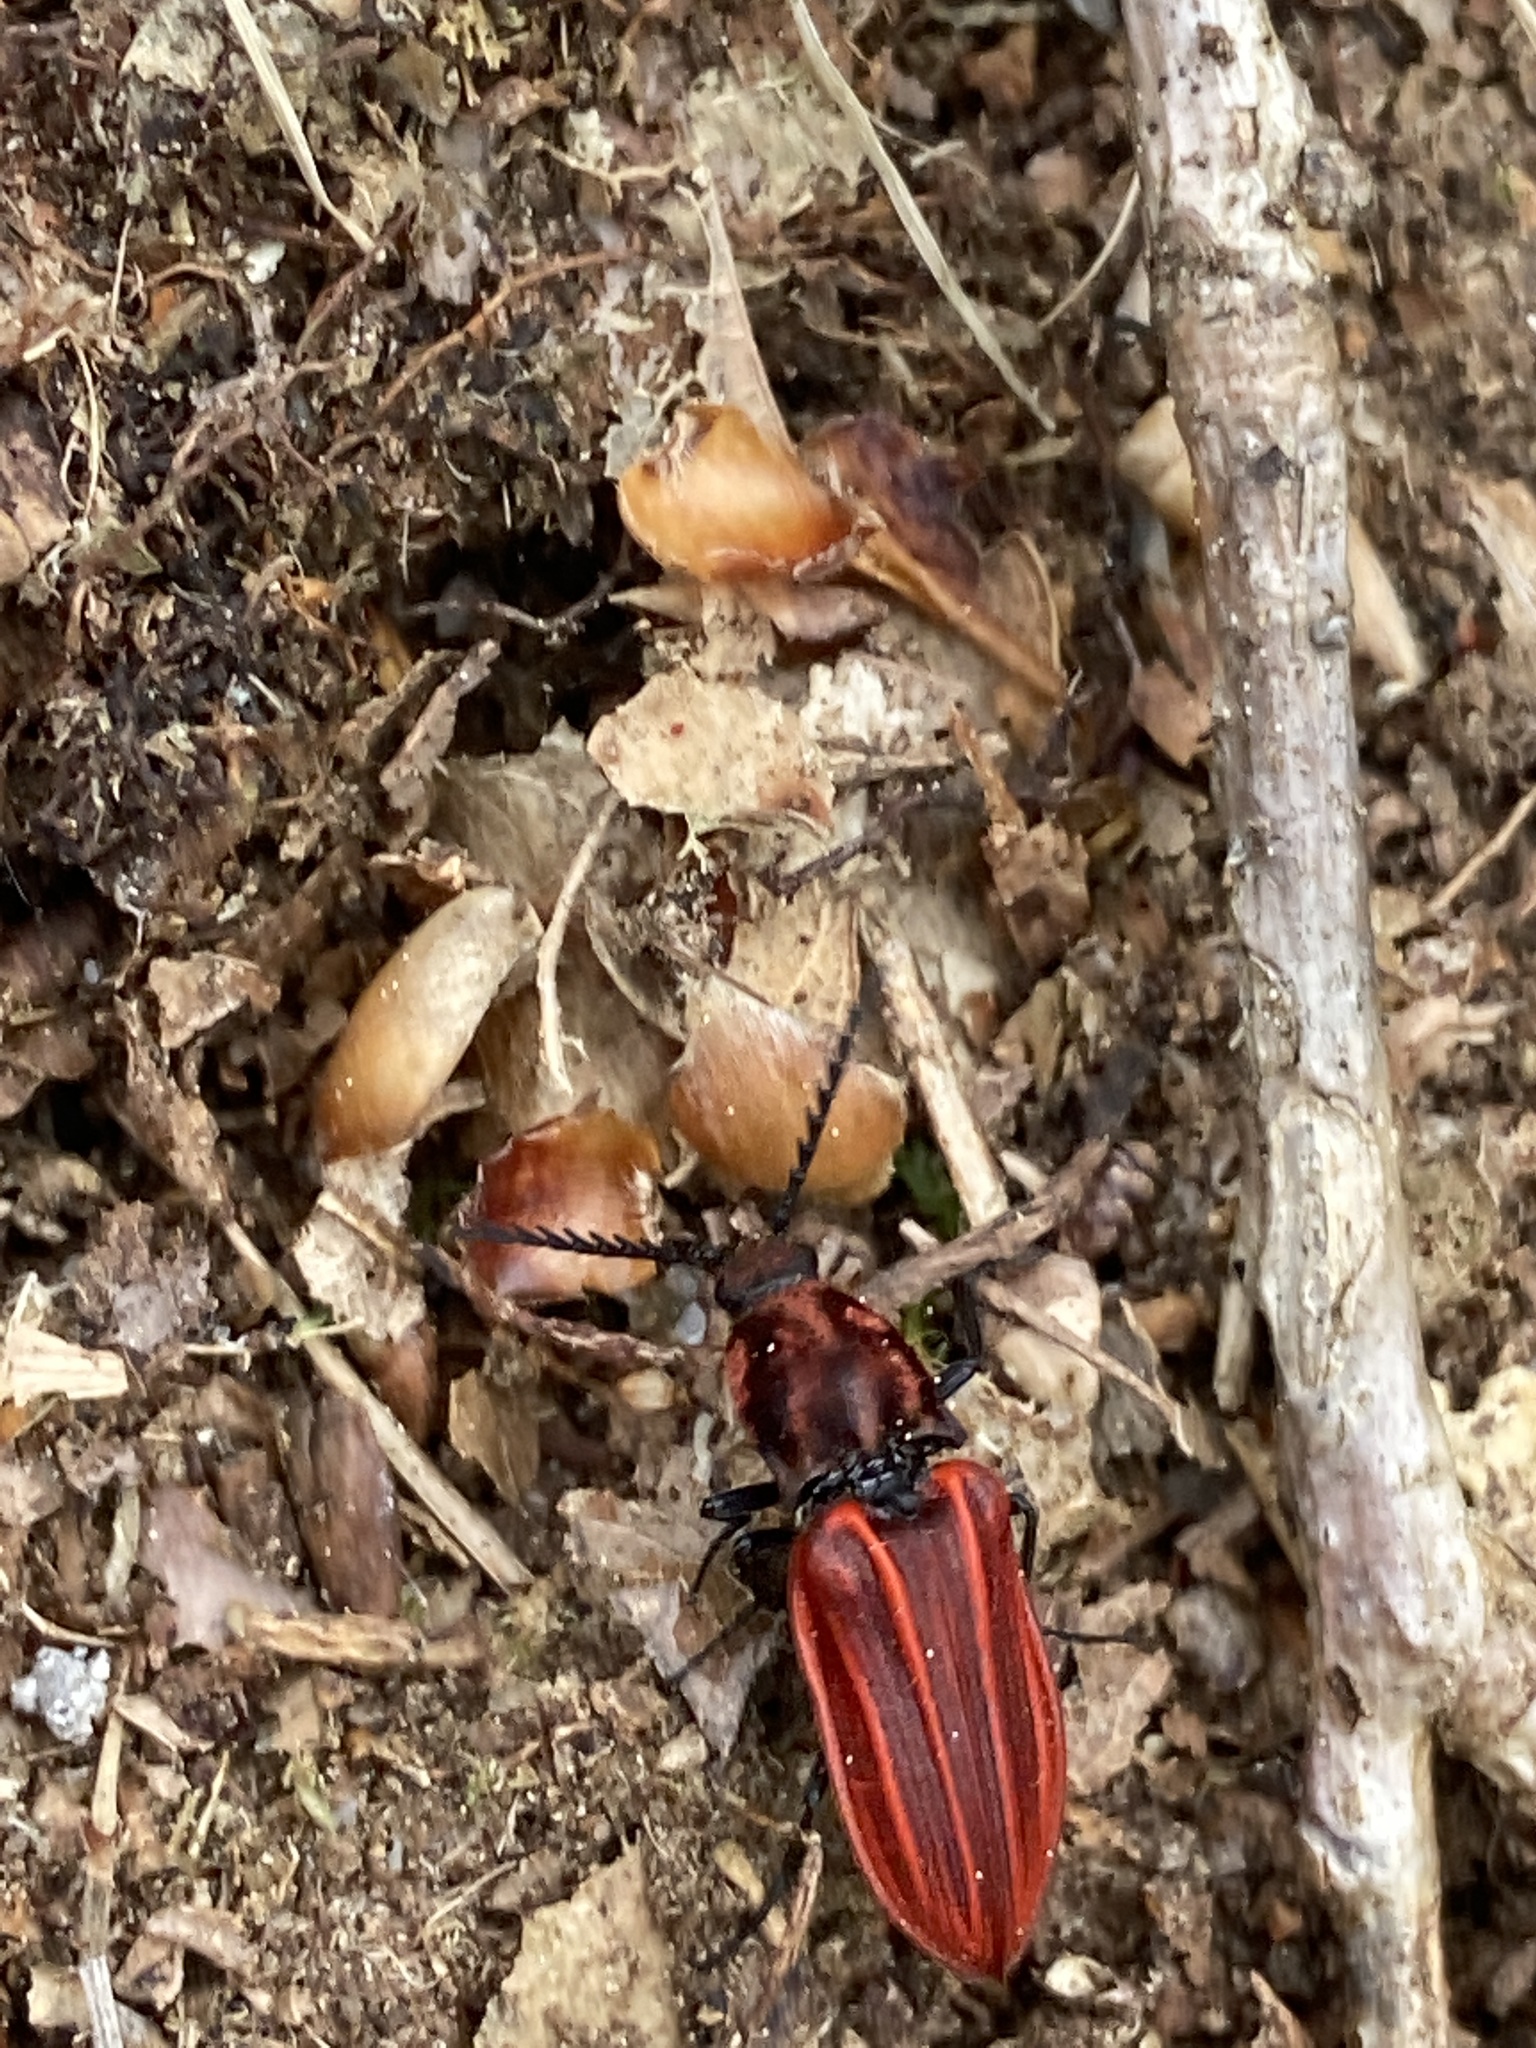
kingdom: Animalia
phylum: Arthropoda
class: Insecta
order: Coleoptera
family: Elateridae
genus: Anostirus
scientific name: Anostirus purpureus
